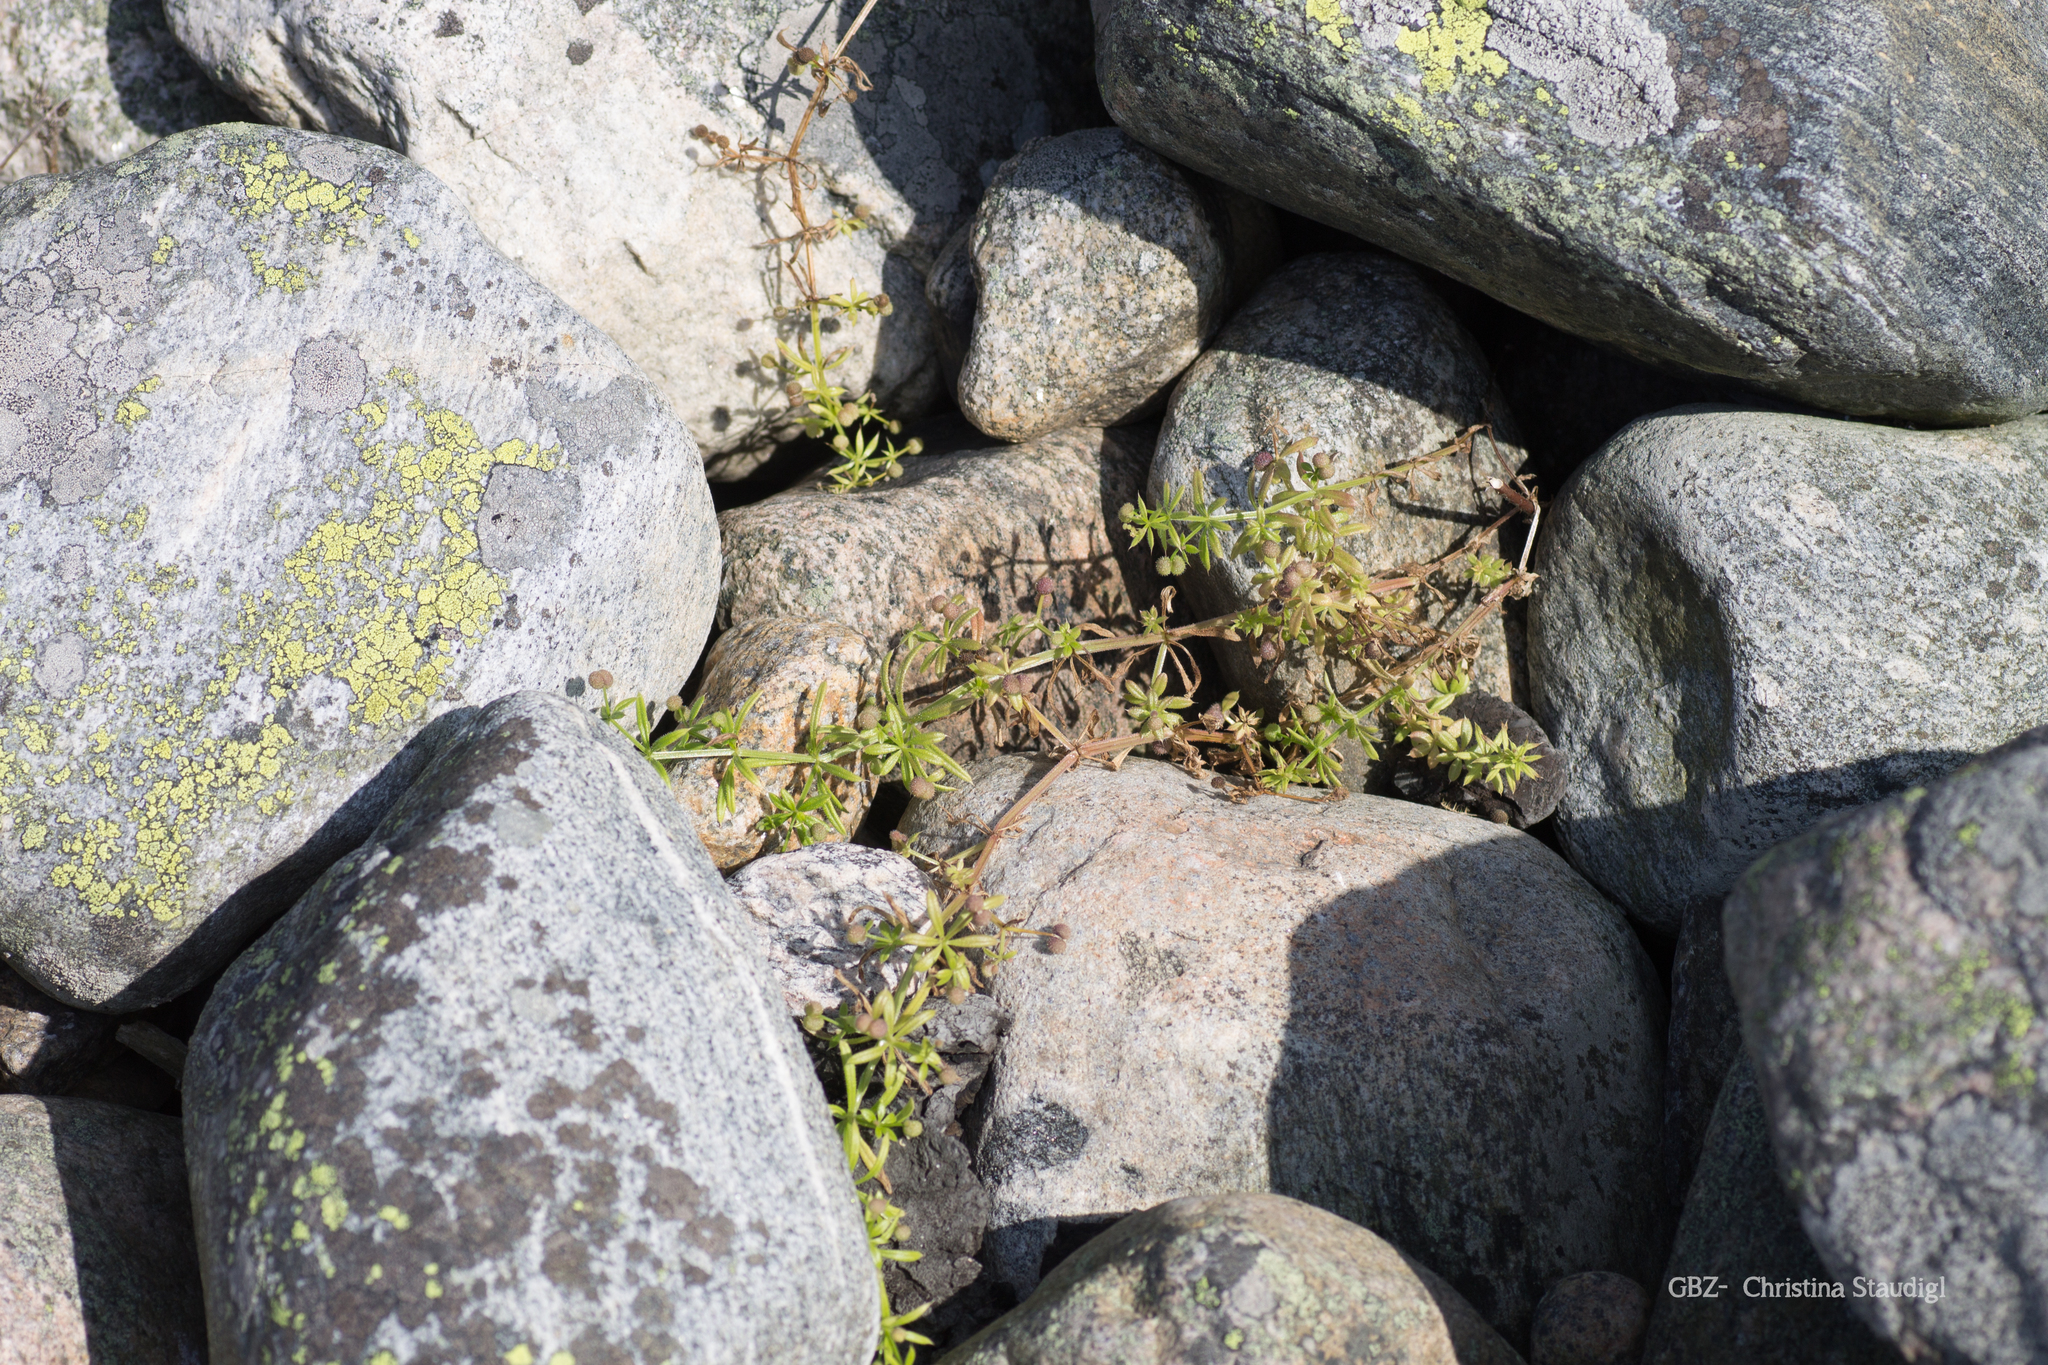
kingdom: Plantae
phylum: Tracheophyta
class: Magnoliopsida
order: Gentianales
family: Rubiaceae
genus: Galium
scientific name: Galium aparine
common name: Cleavers
